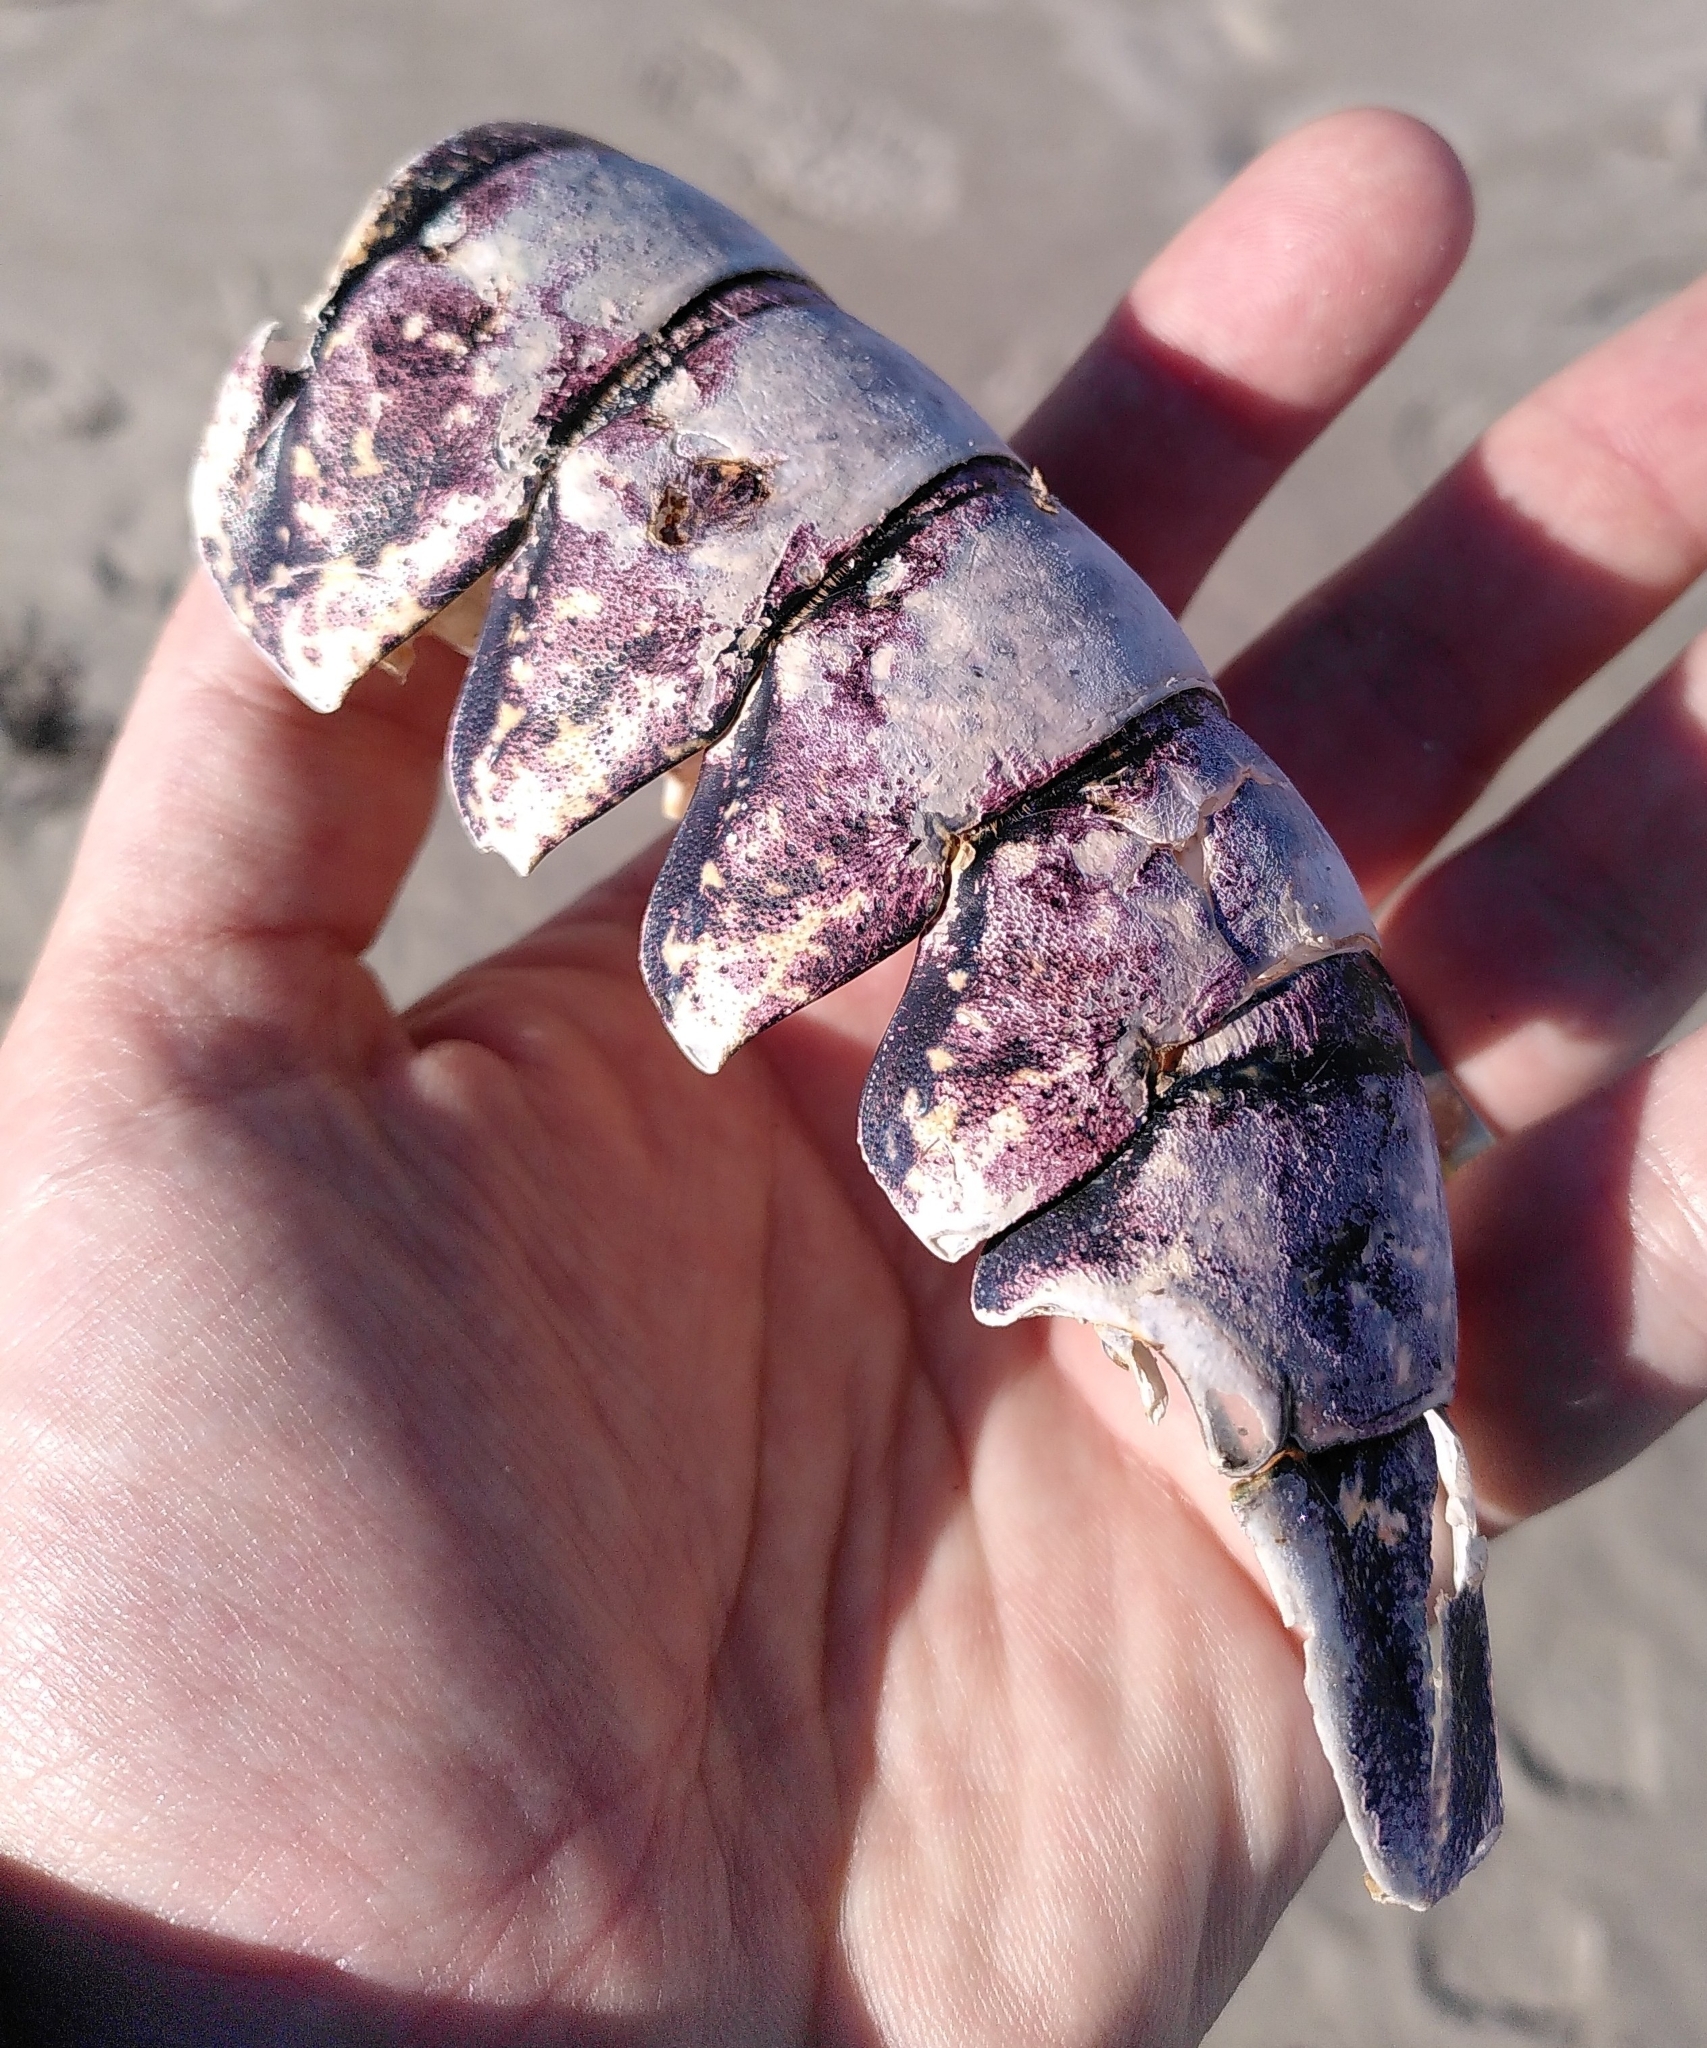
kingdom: Animalia
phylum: Arthropoda
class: Malacostraca
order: Decapoda
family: Nephropidae
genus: Homarus
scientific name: Homarus gammarus
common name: European lobster
